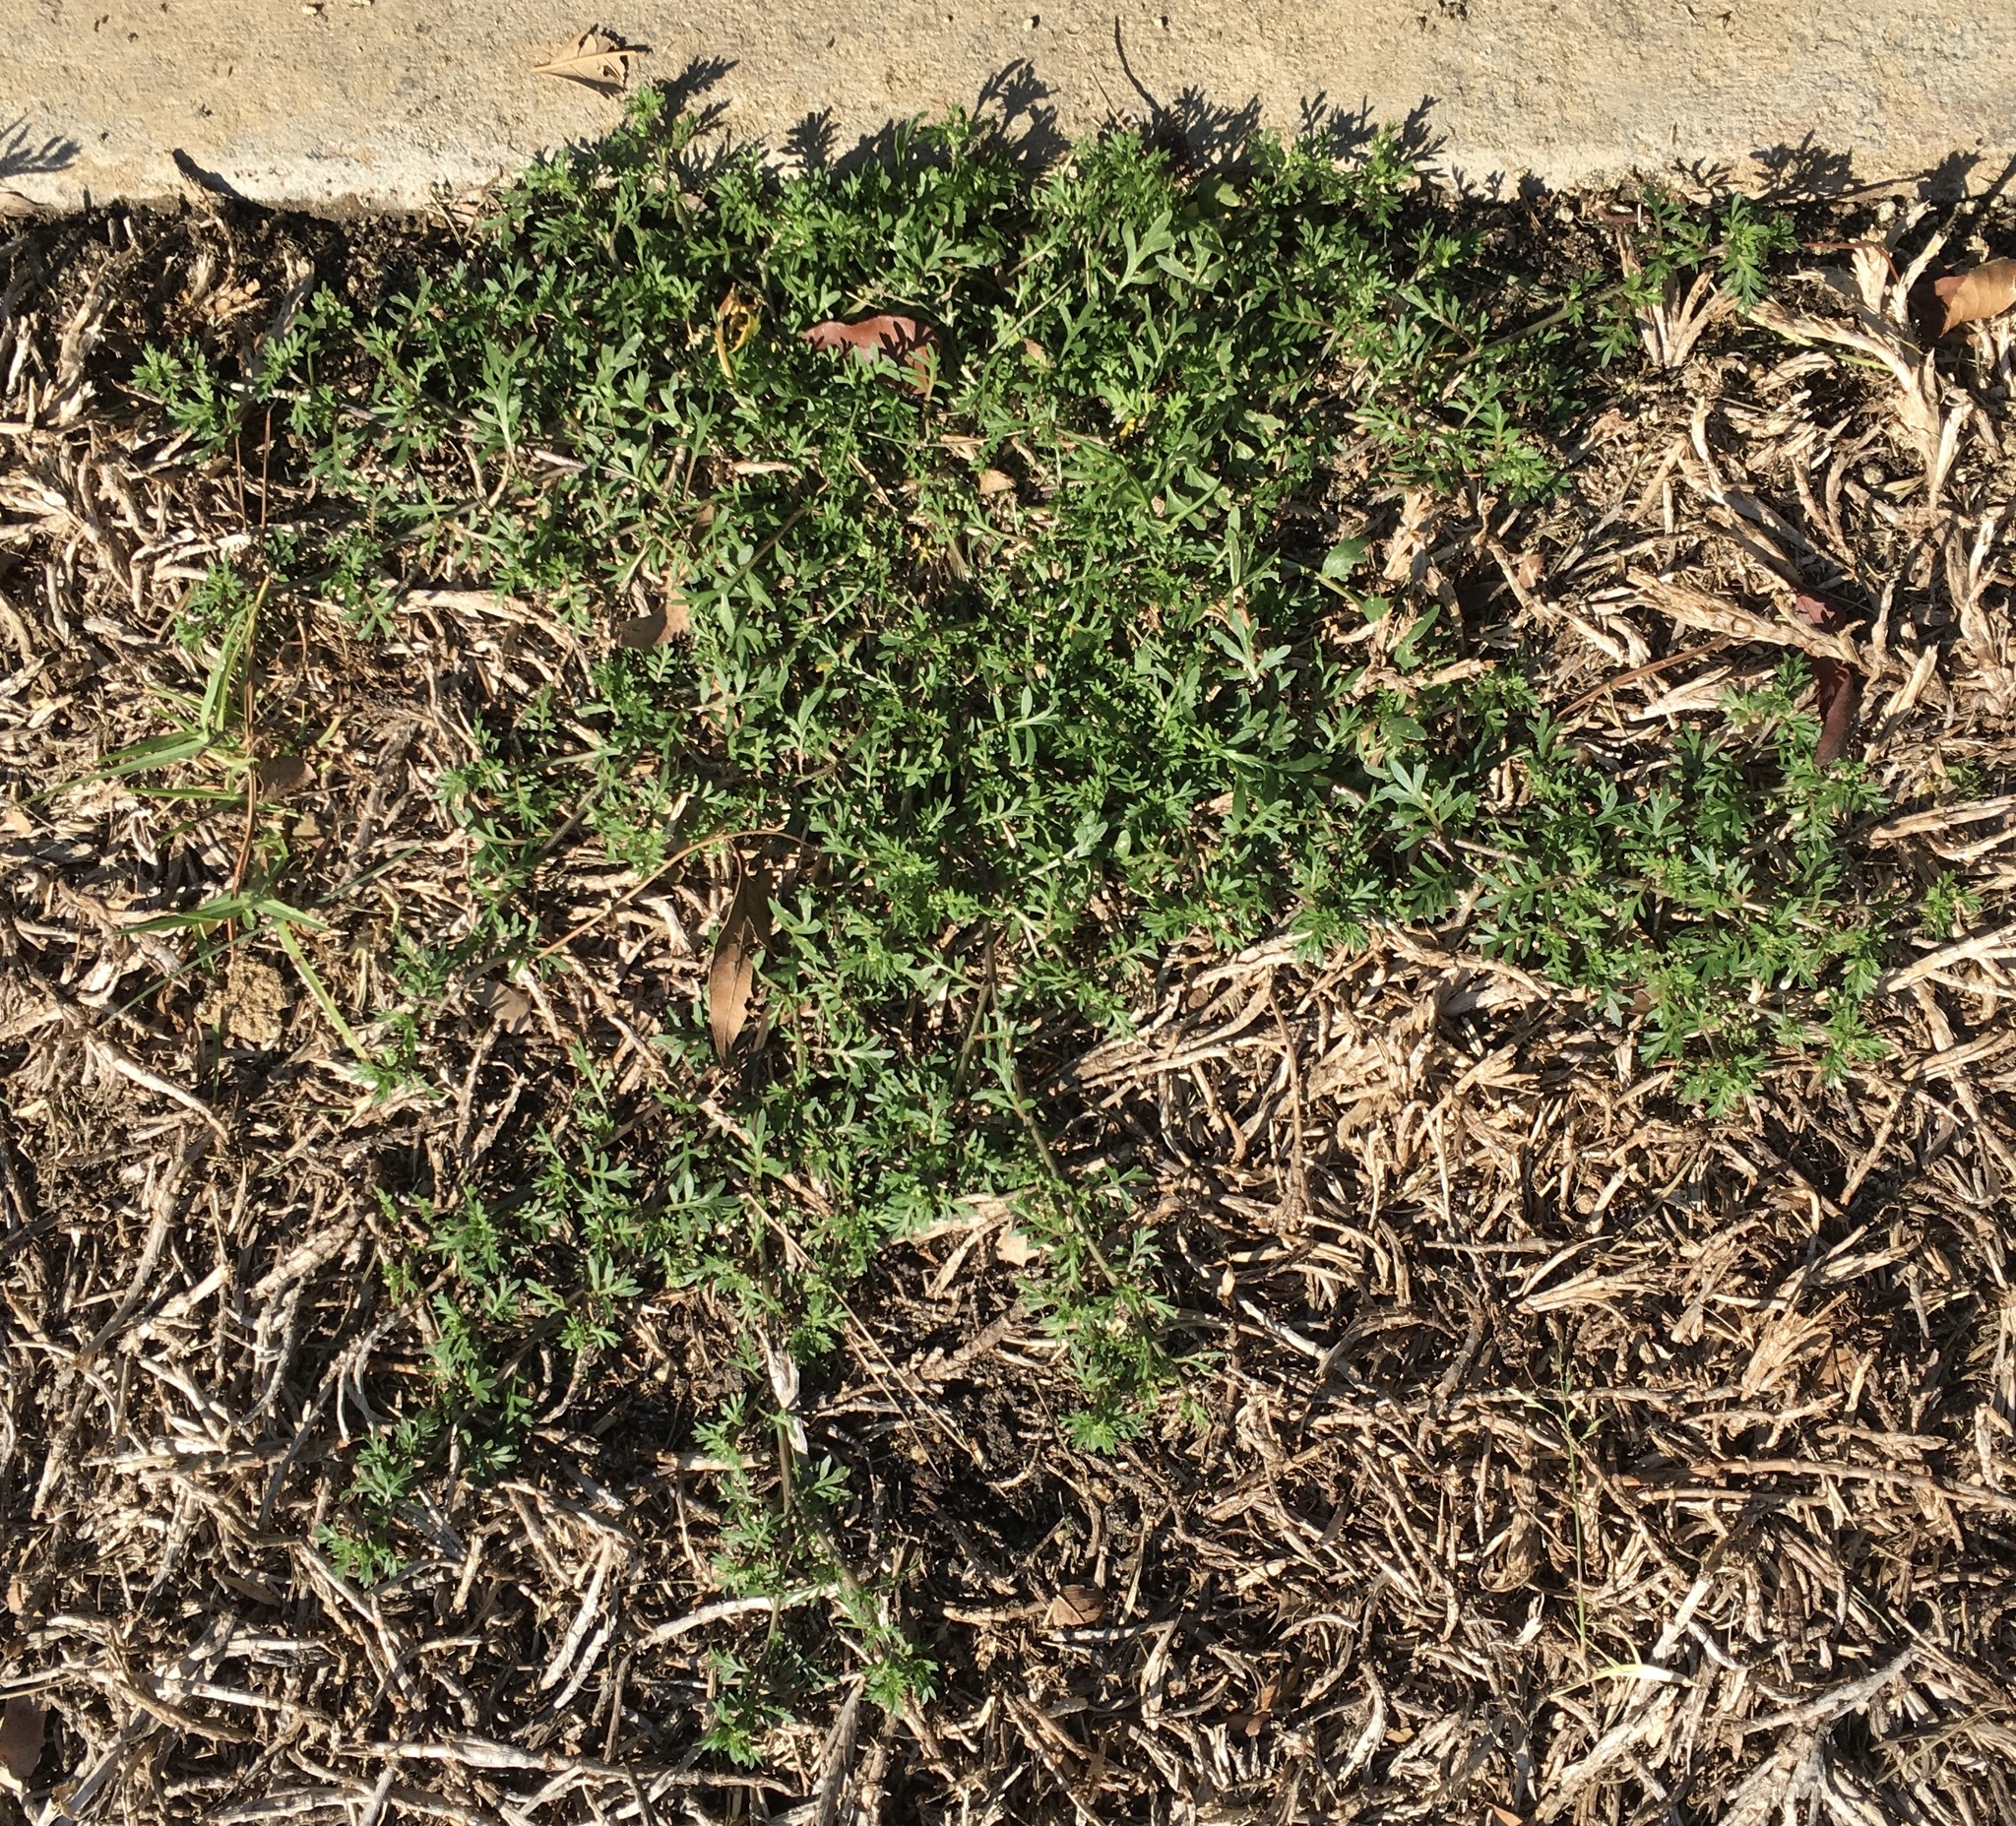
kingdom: Plantae
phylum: Tracheophyta
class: Magnoliopsida
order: Brassicales
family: Brassicaceae
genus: Lepidium
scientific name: Lepidium didymum
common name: Lesser swinecress
